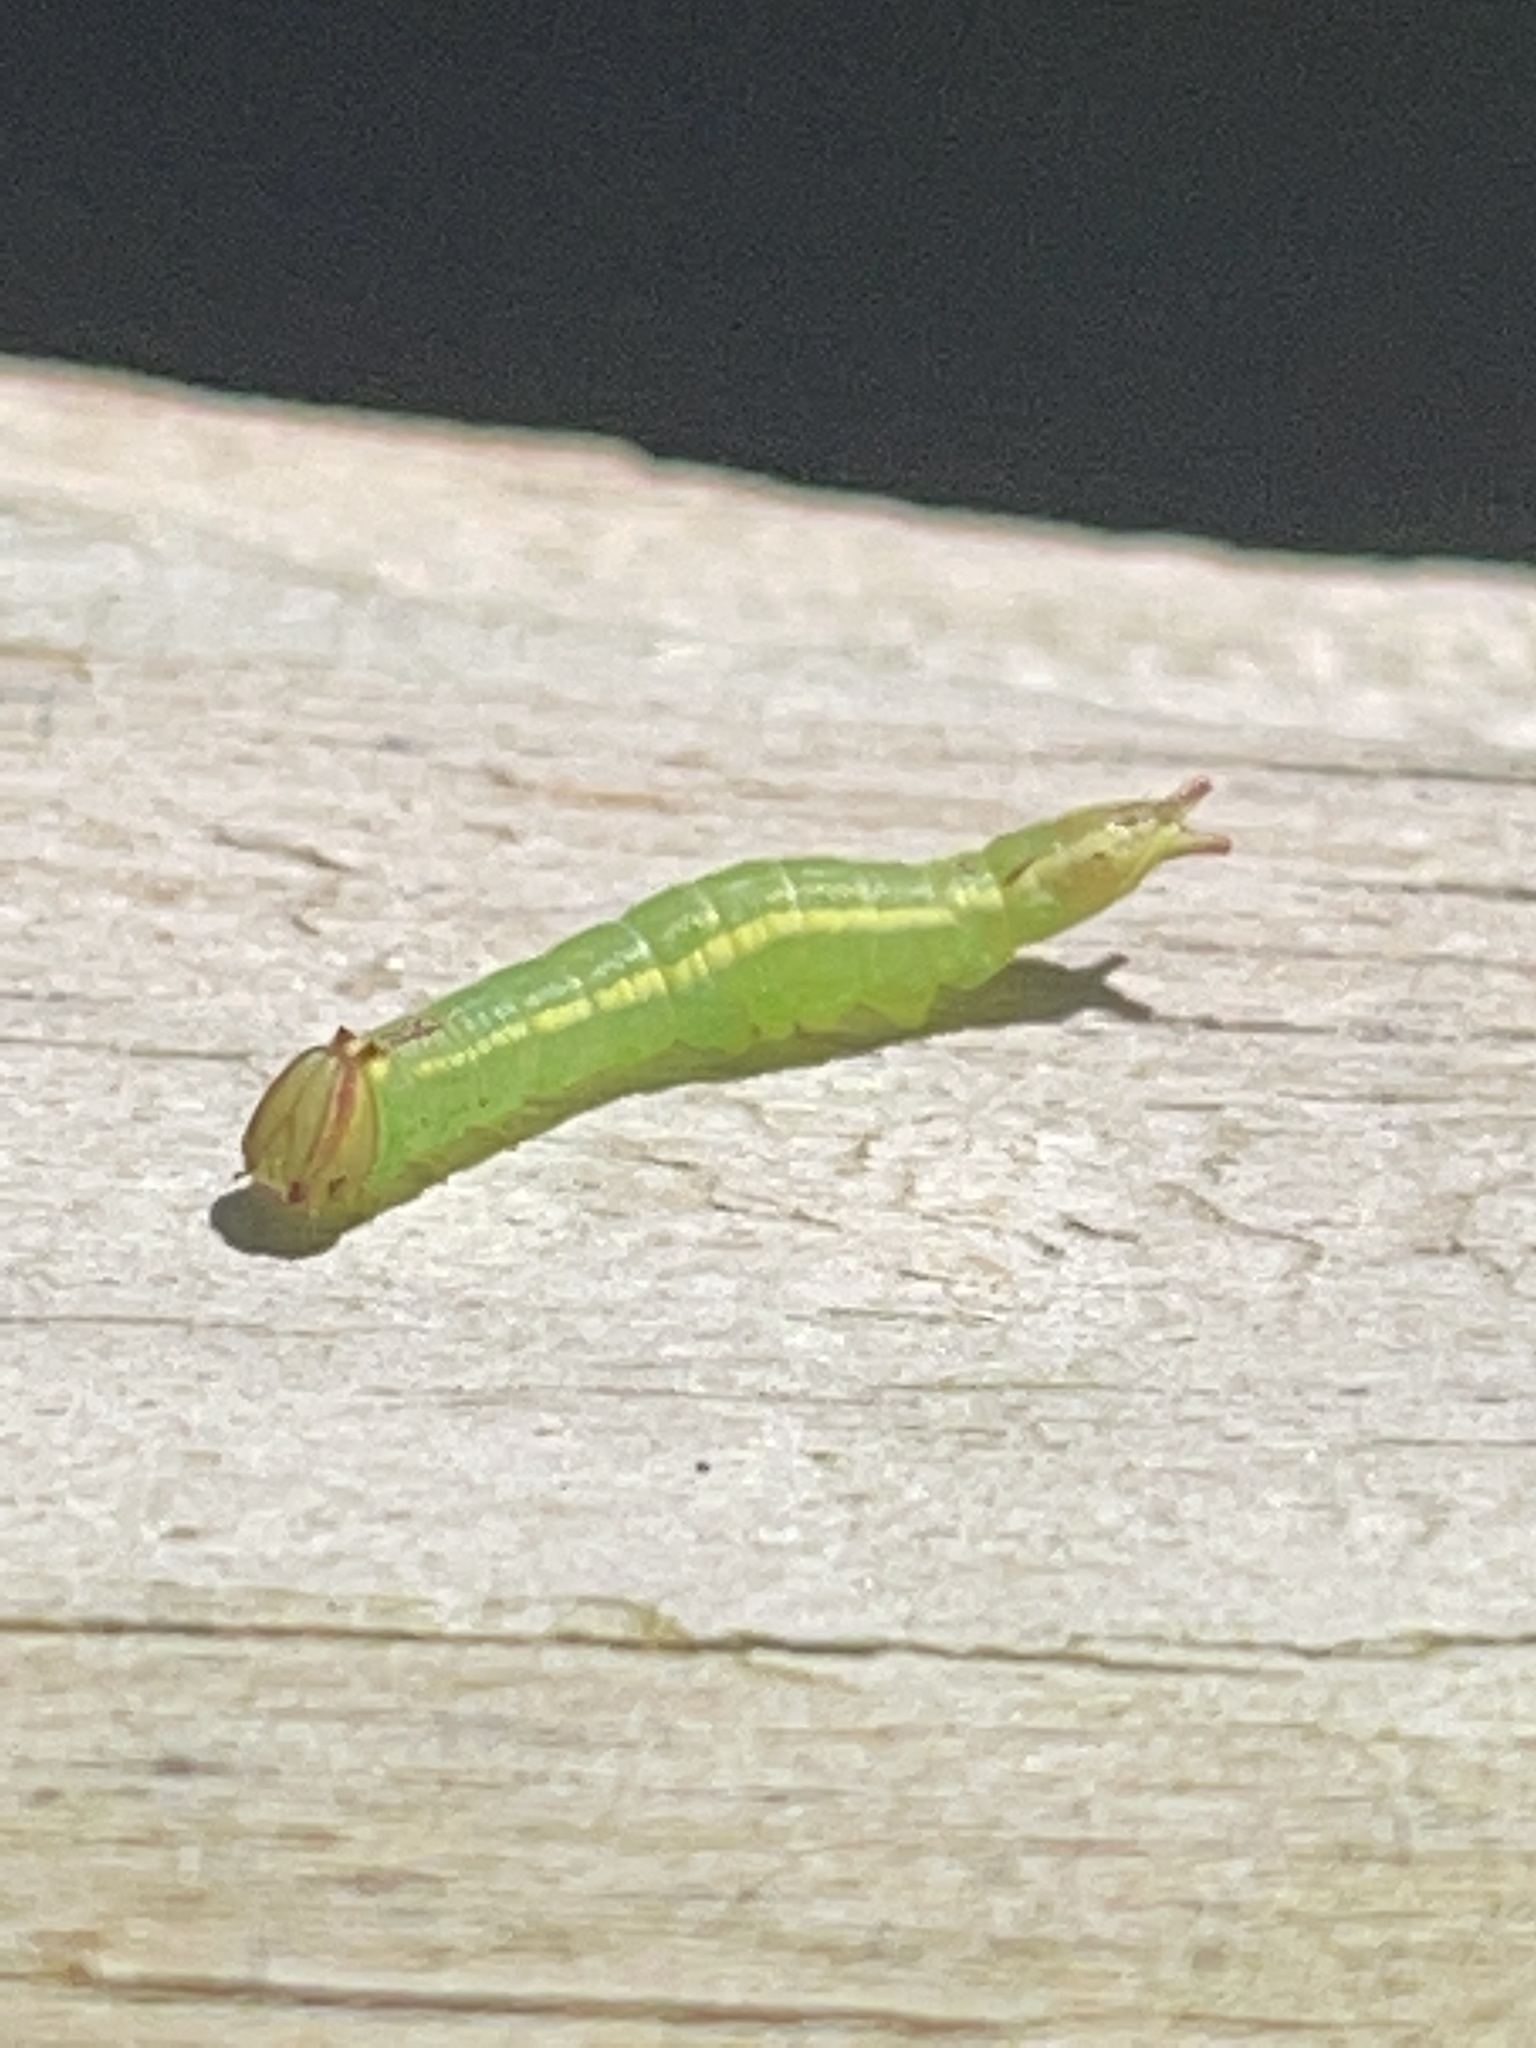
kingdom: Animalia
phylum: Arthropoda
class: Insecta
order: Lepidoptera
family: Notodontidae
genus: Disphragis
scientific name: Disphragis Cecrita guttivitta
